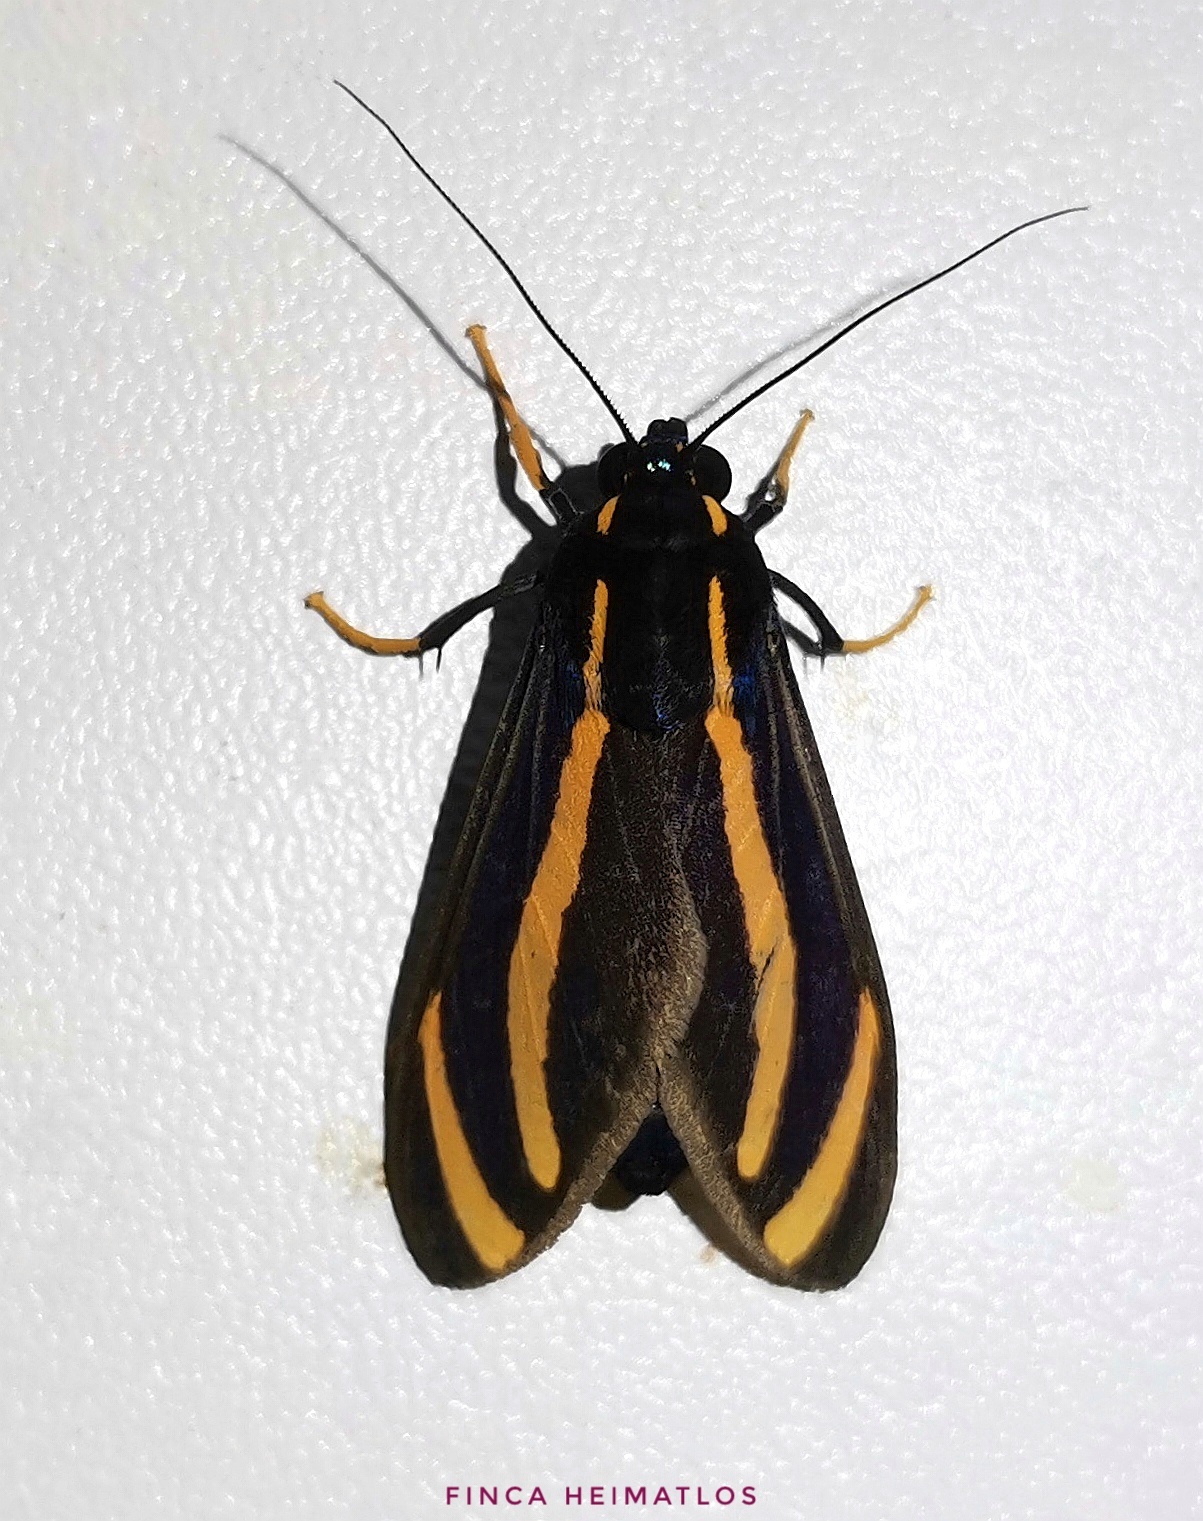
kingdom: Animalia
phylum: Arthropoda
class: Insecta
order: Lepidoptera
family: Erebidae
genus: Ormetica
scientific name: Ormetica packardi
